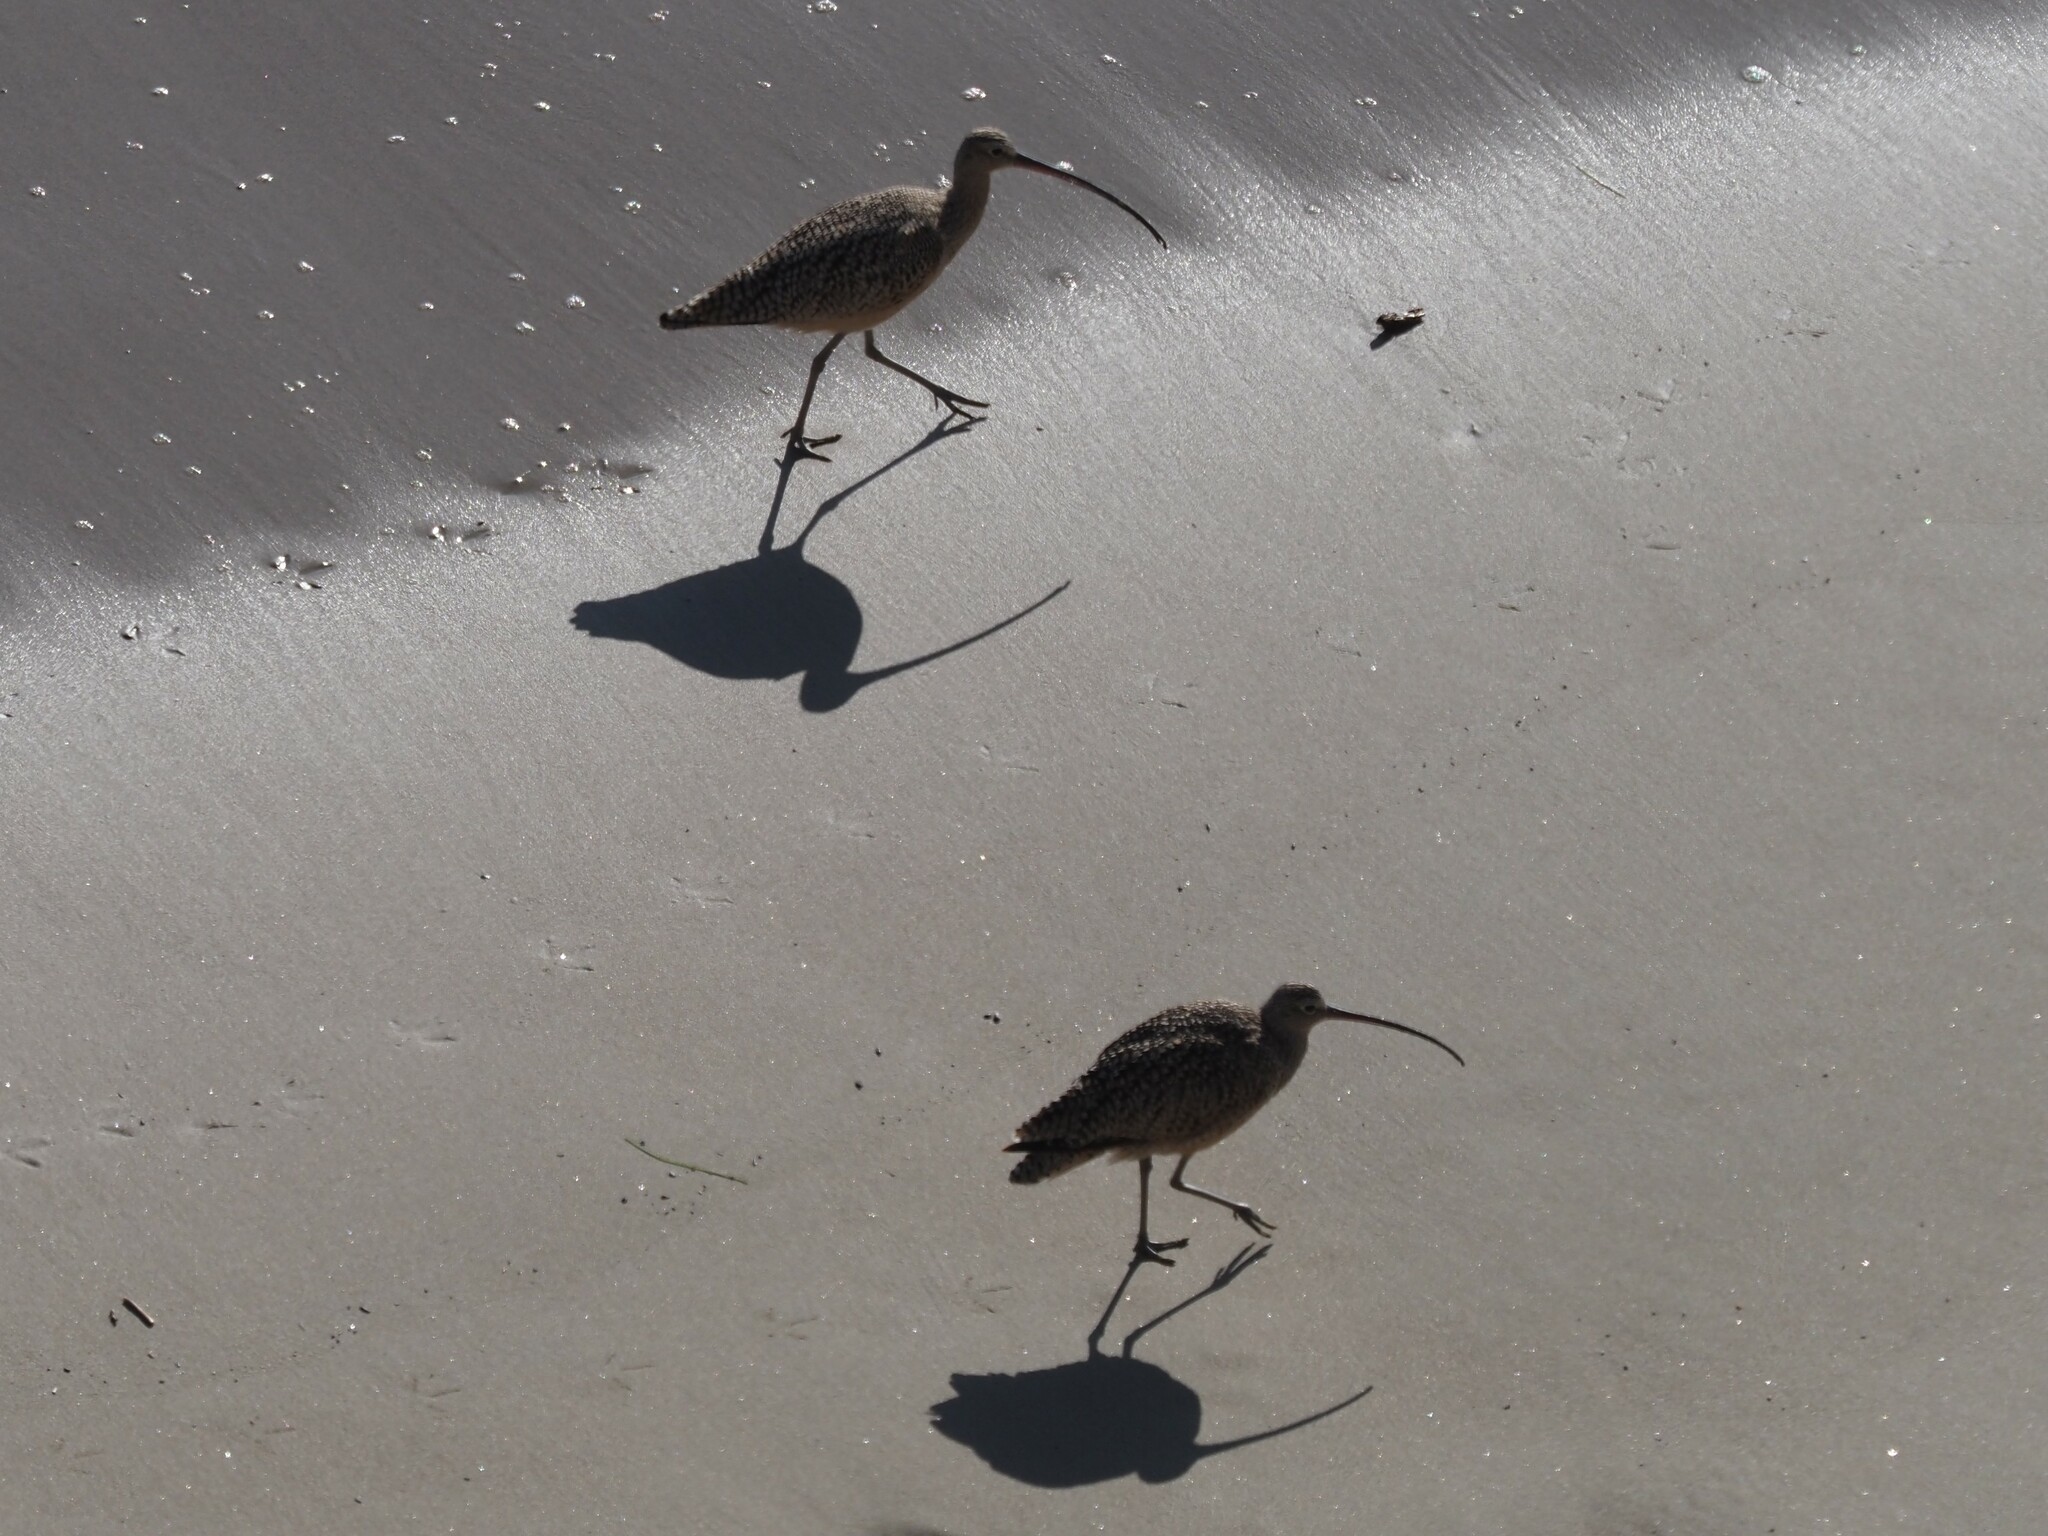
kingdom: Animalia
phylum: Chordata
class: Aves
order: Charadriiformes
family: Scolopacidae
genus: Numenius
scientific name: Numenius americanus
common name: Long-billed curlew
